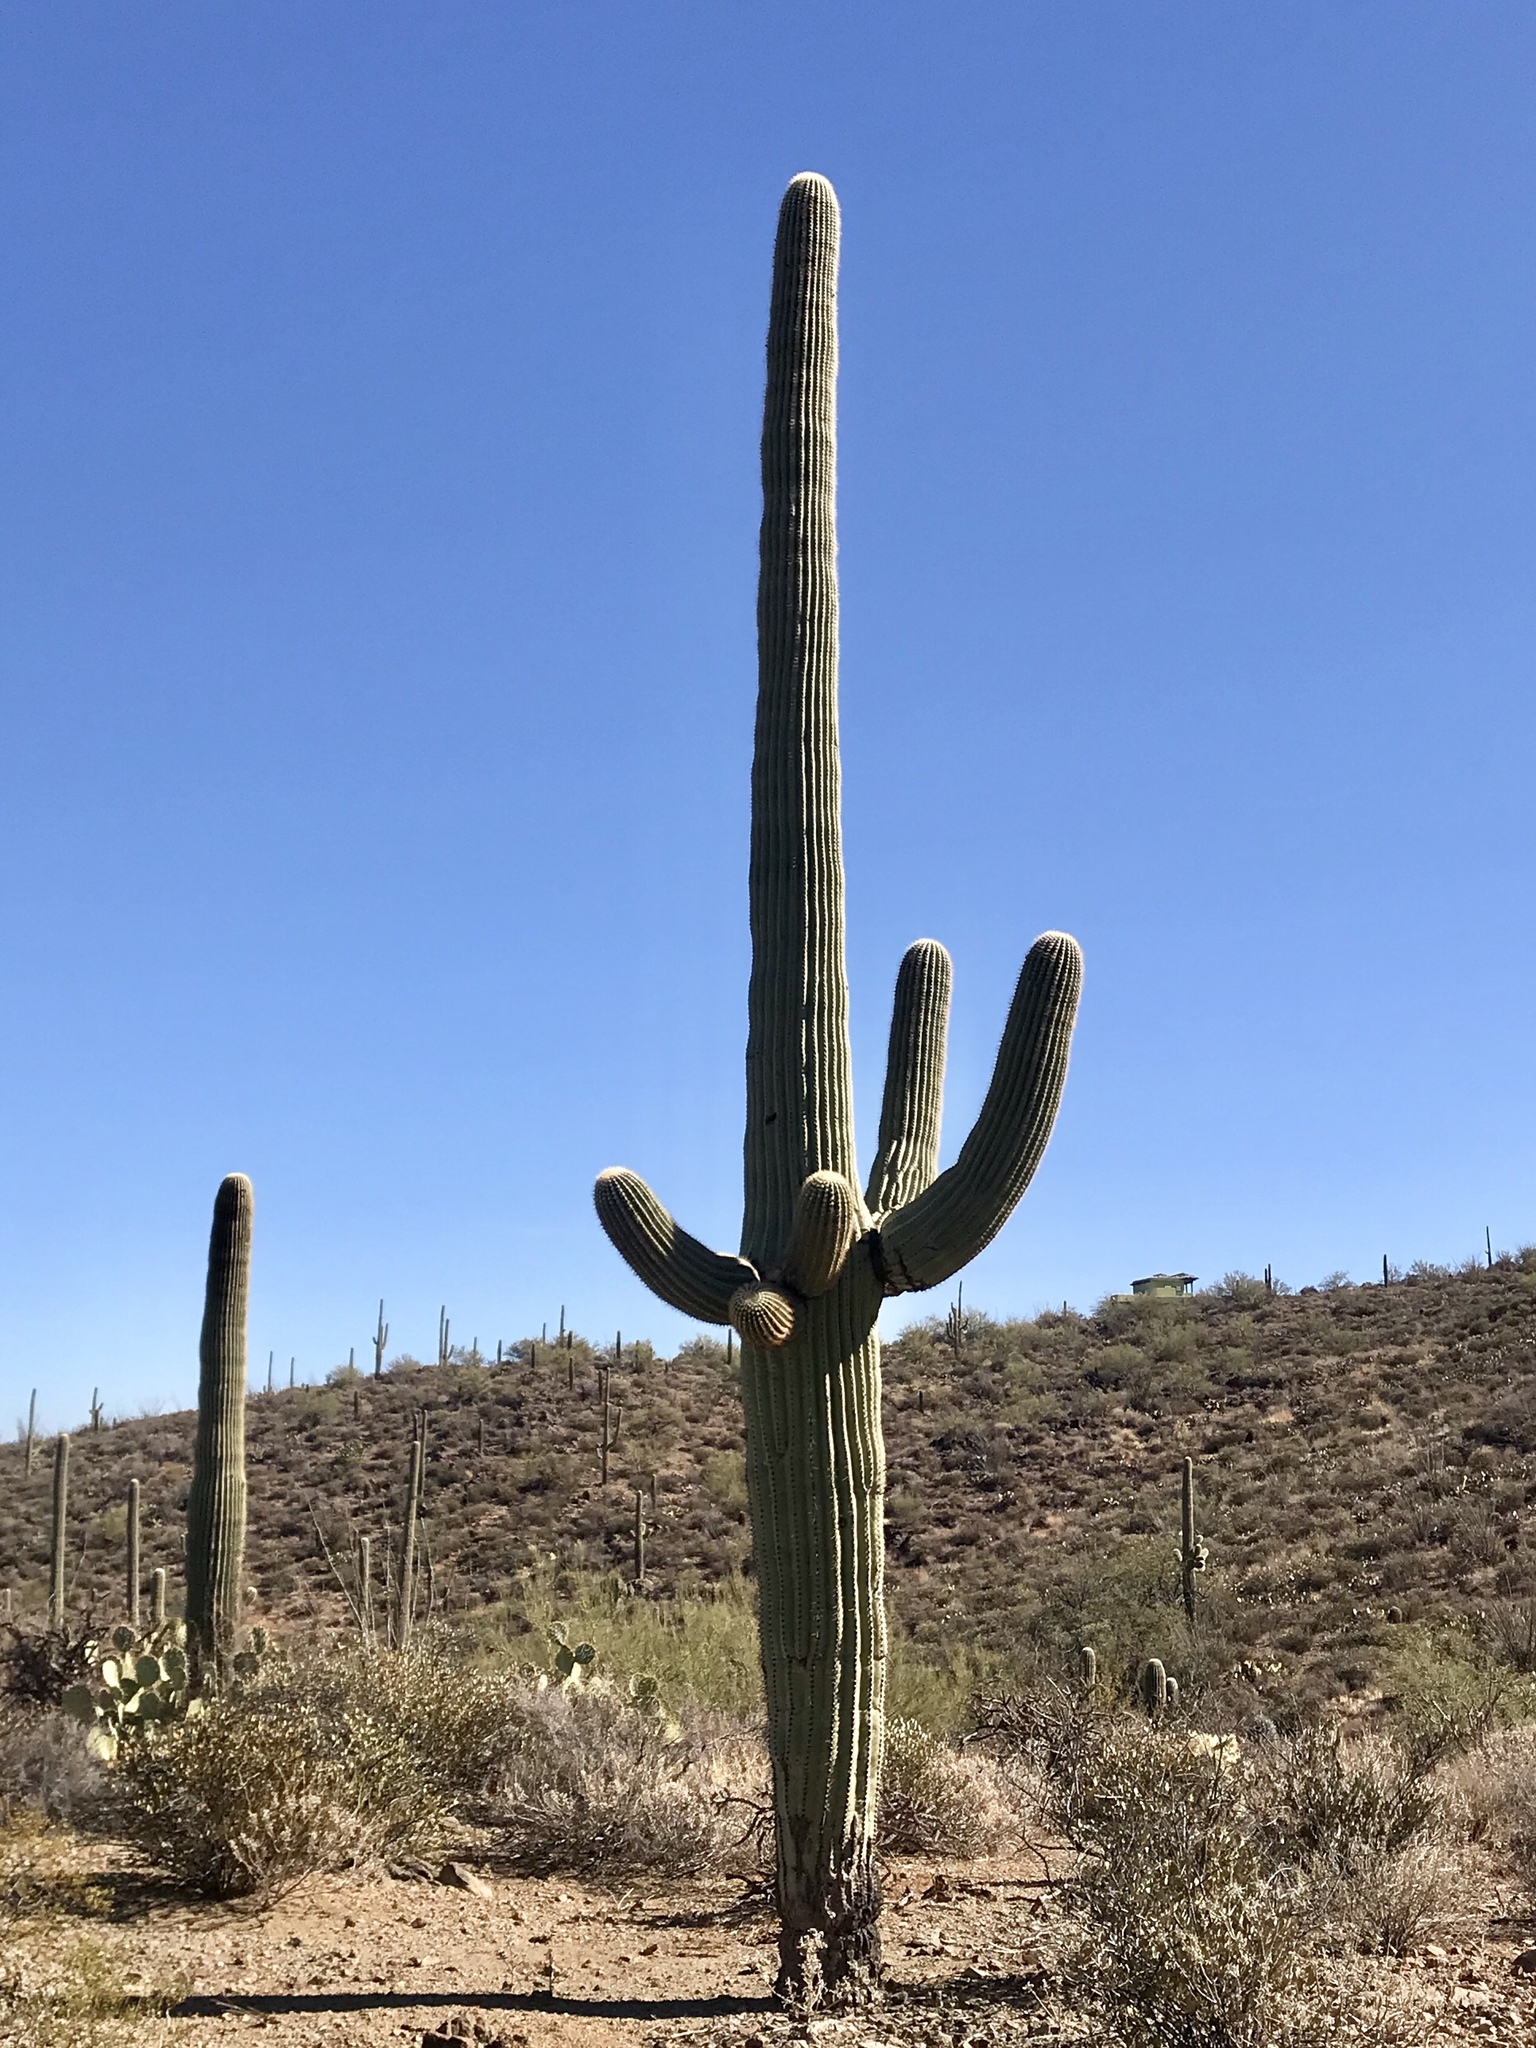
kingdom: Plantae
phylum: Tracheophyta
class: Magnoliopsida
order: Caryophyllales
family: Cactaceae
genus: Carnegiea
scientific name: Carnegiea gigantea
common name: Saguaro
